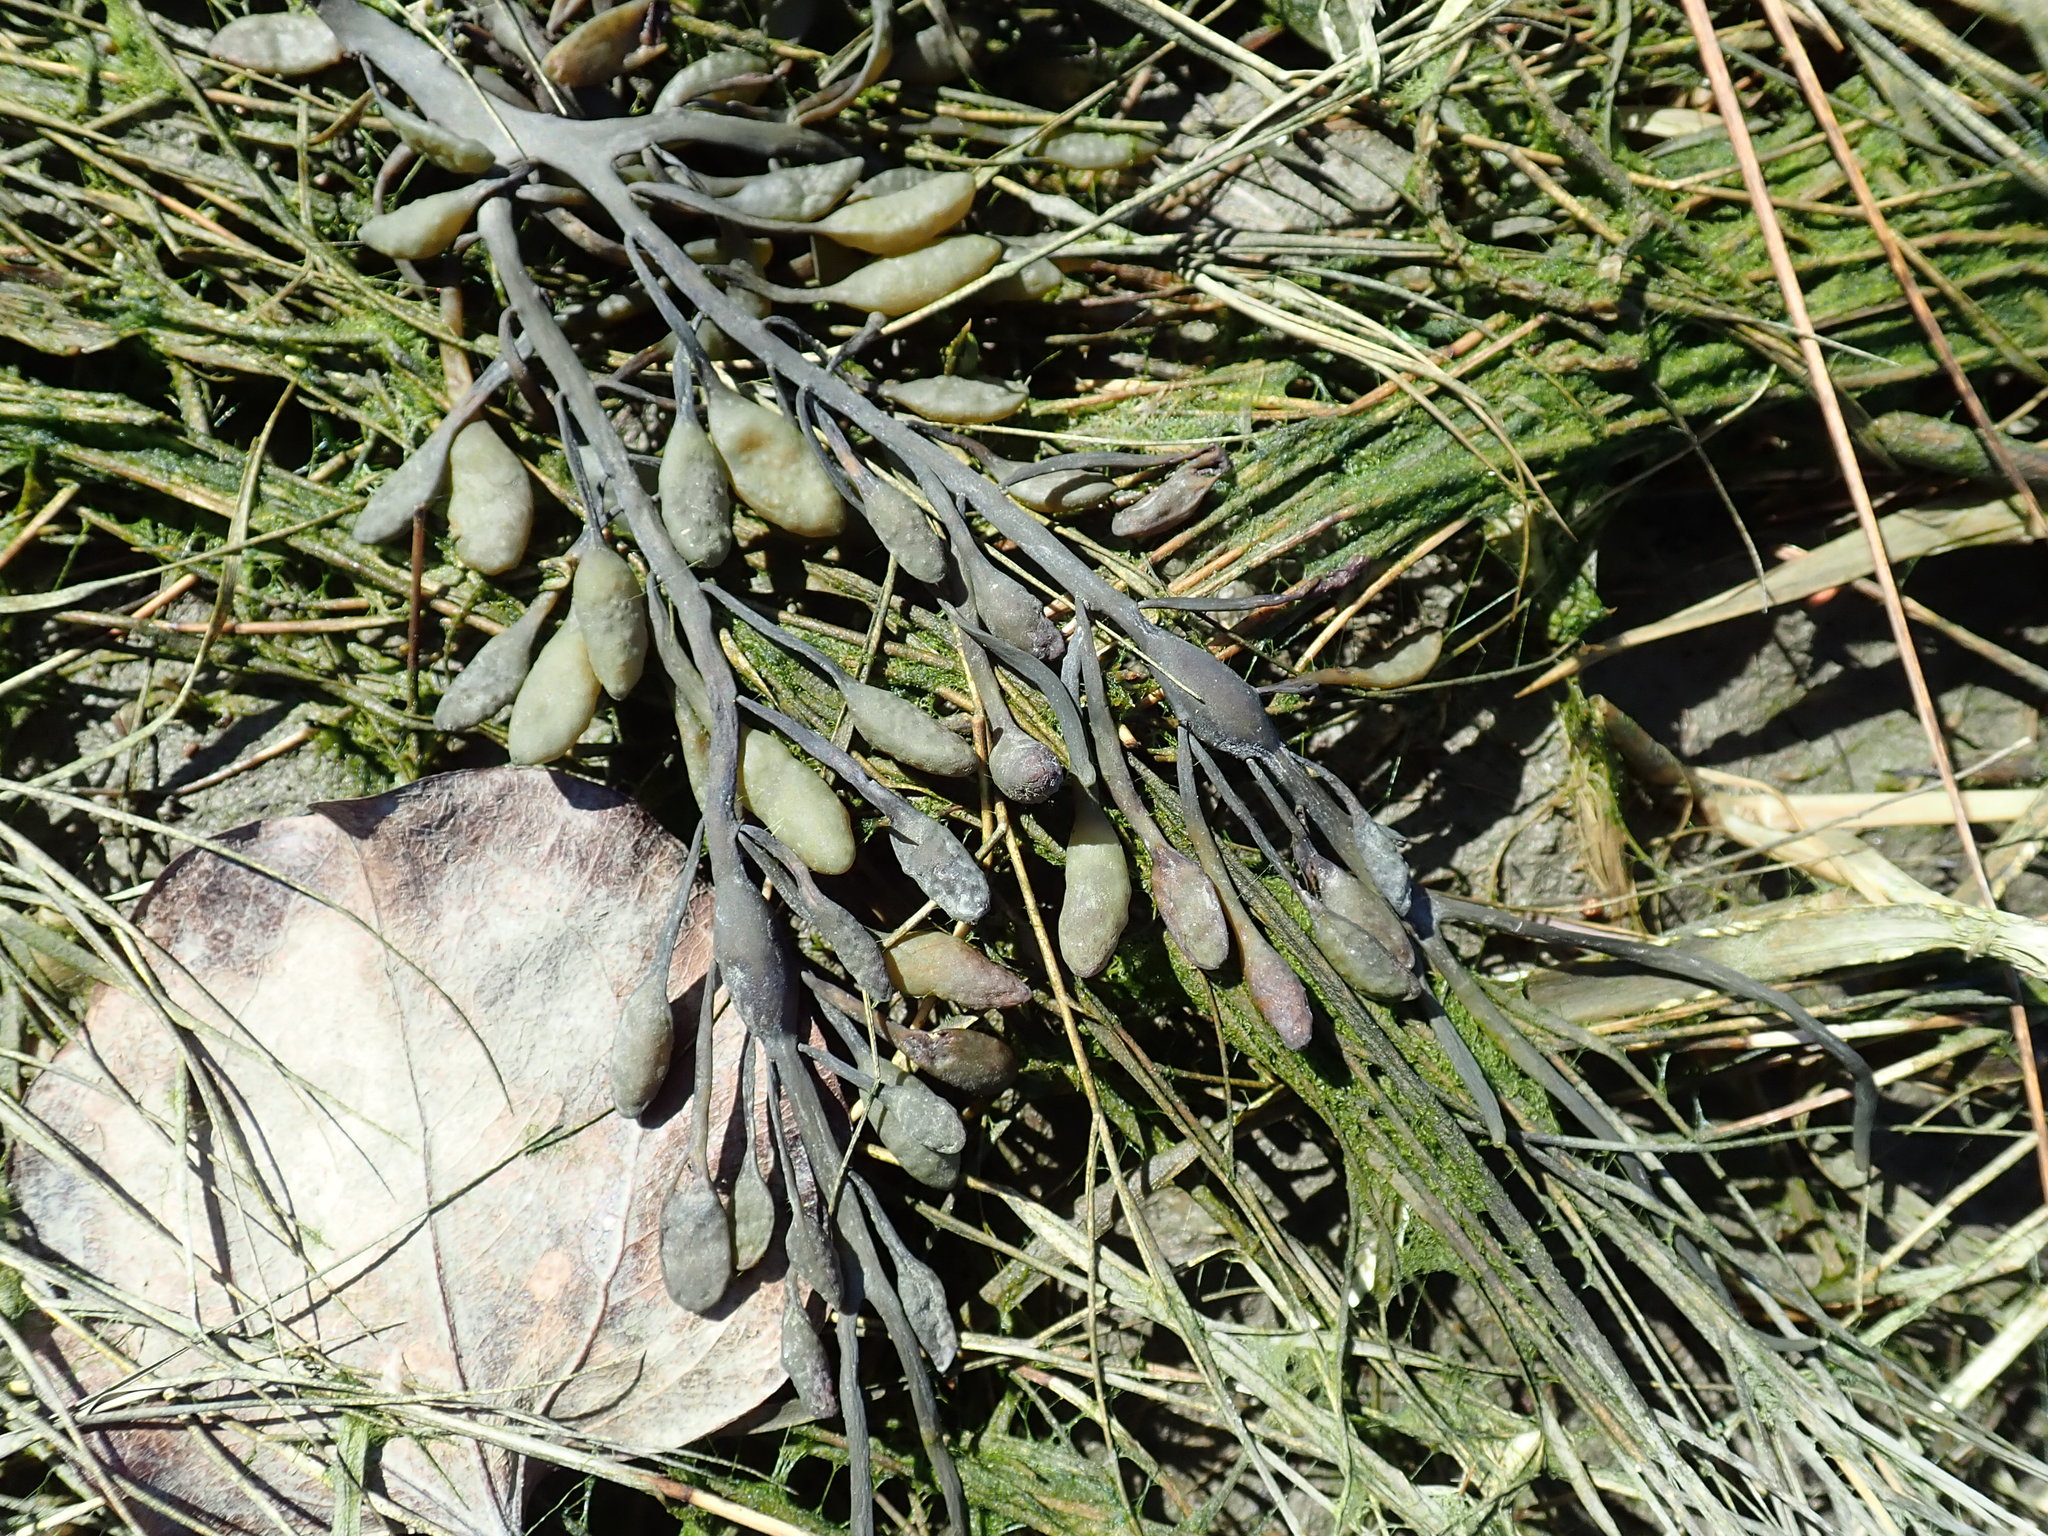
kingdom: Chromista
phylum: Ochrophyta
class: Phaeophyceae
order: Fucales
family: Fucaceae
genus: Ascophyllum
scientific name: Ascophyllum nodosum
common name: Knotted wrack
